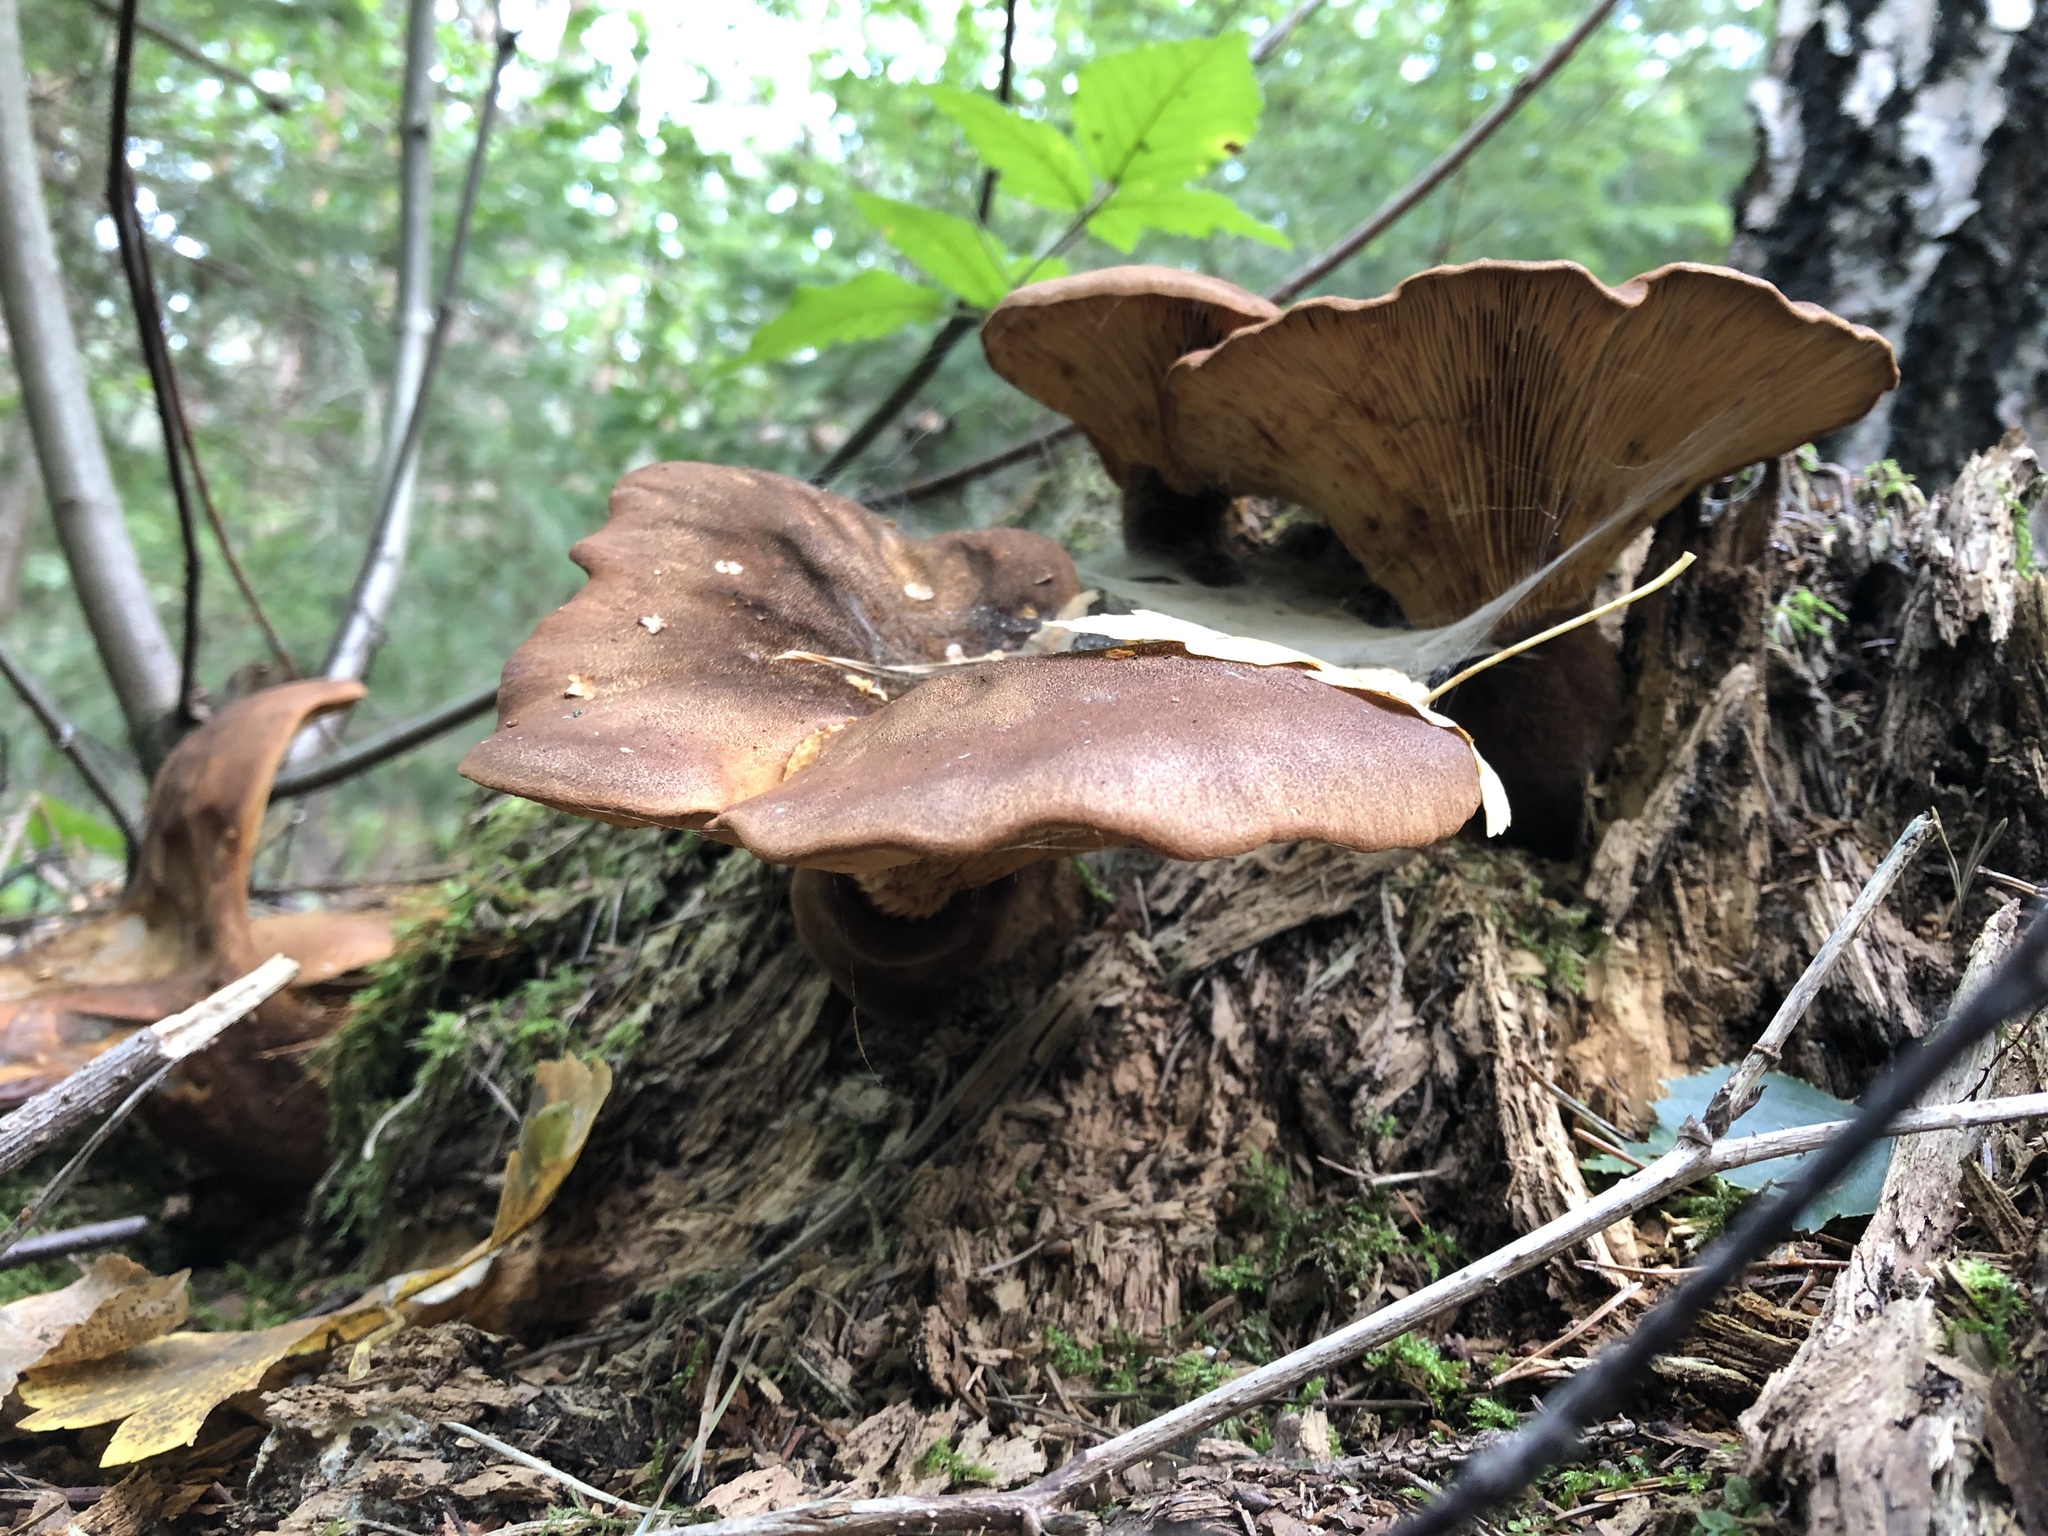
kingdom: Fungi
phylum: Basidiomycota
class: Agaricomycetes
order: Boletales
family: Tapinellaceae
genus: Tapinella
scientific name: Tapinella atrotomentosa
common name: Velvet rollrim
